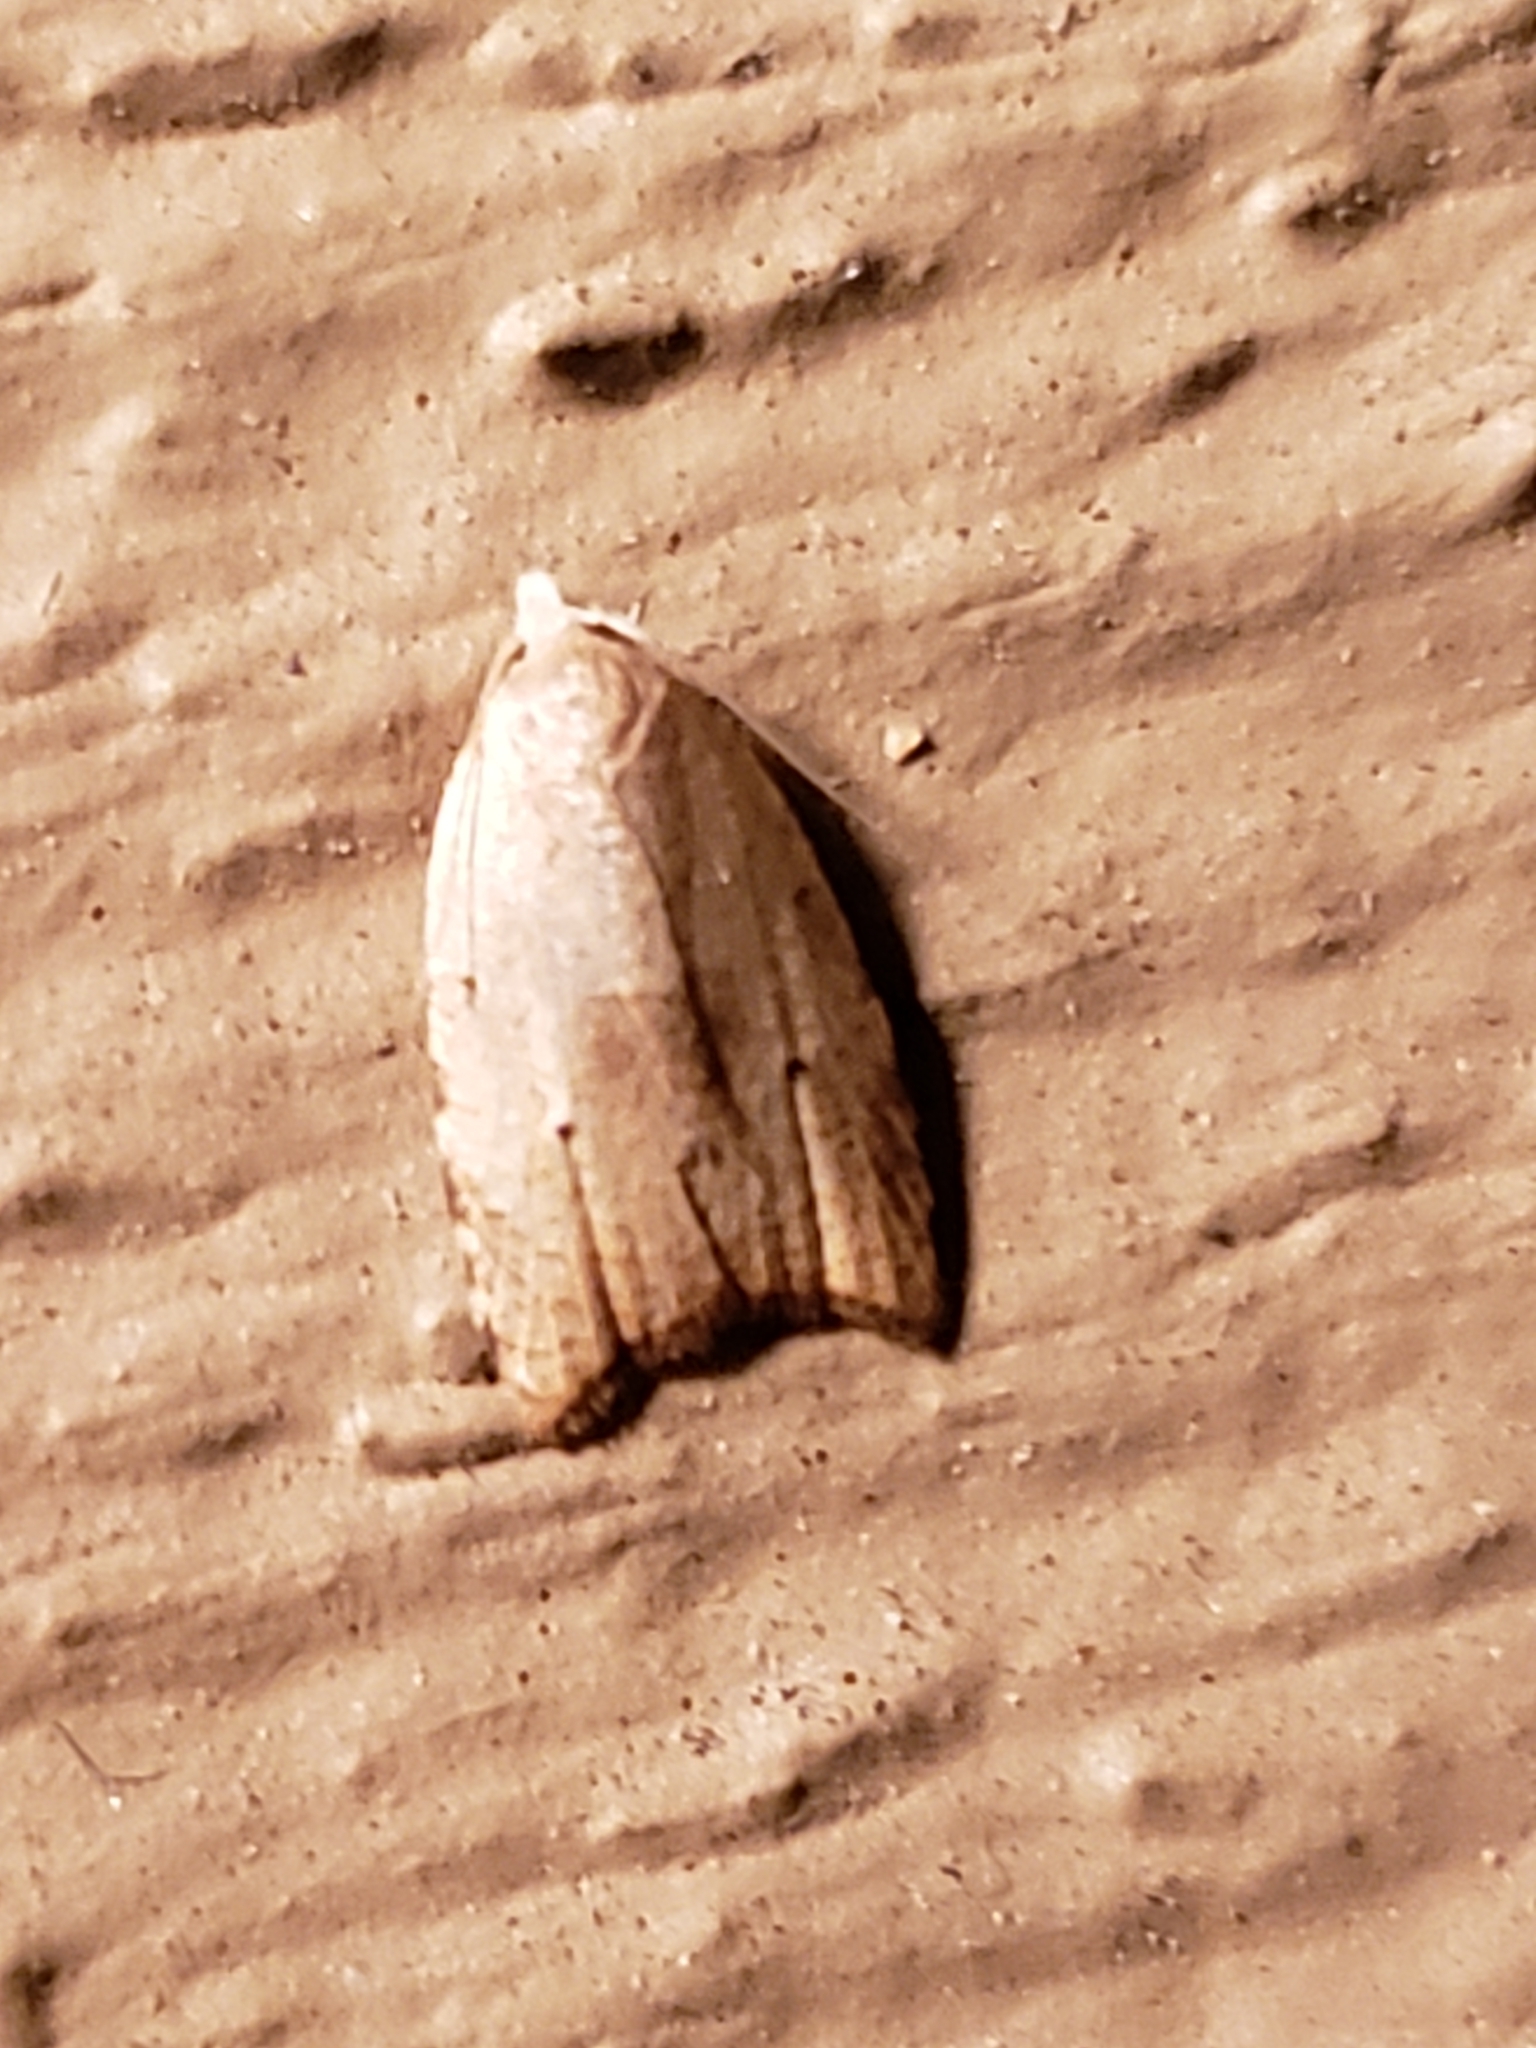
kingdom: Animalia
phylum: Arthropoda
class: Insecta
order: Lepidoptera
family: Tortricidae
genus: Coelostathma
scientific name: Coelostathma discopunctana
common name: Batman moth
